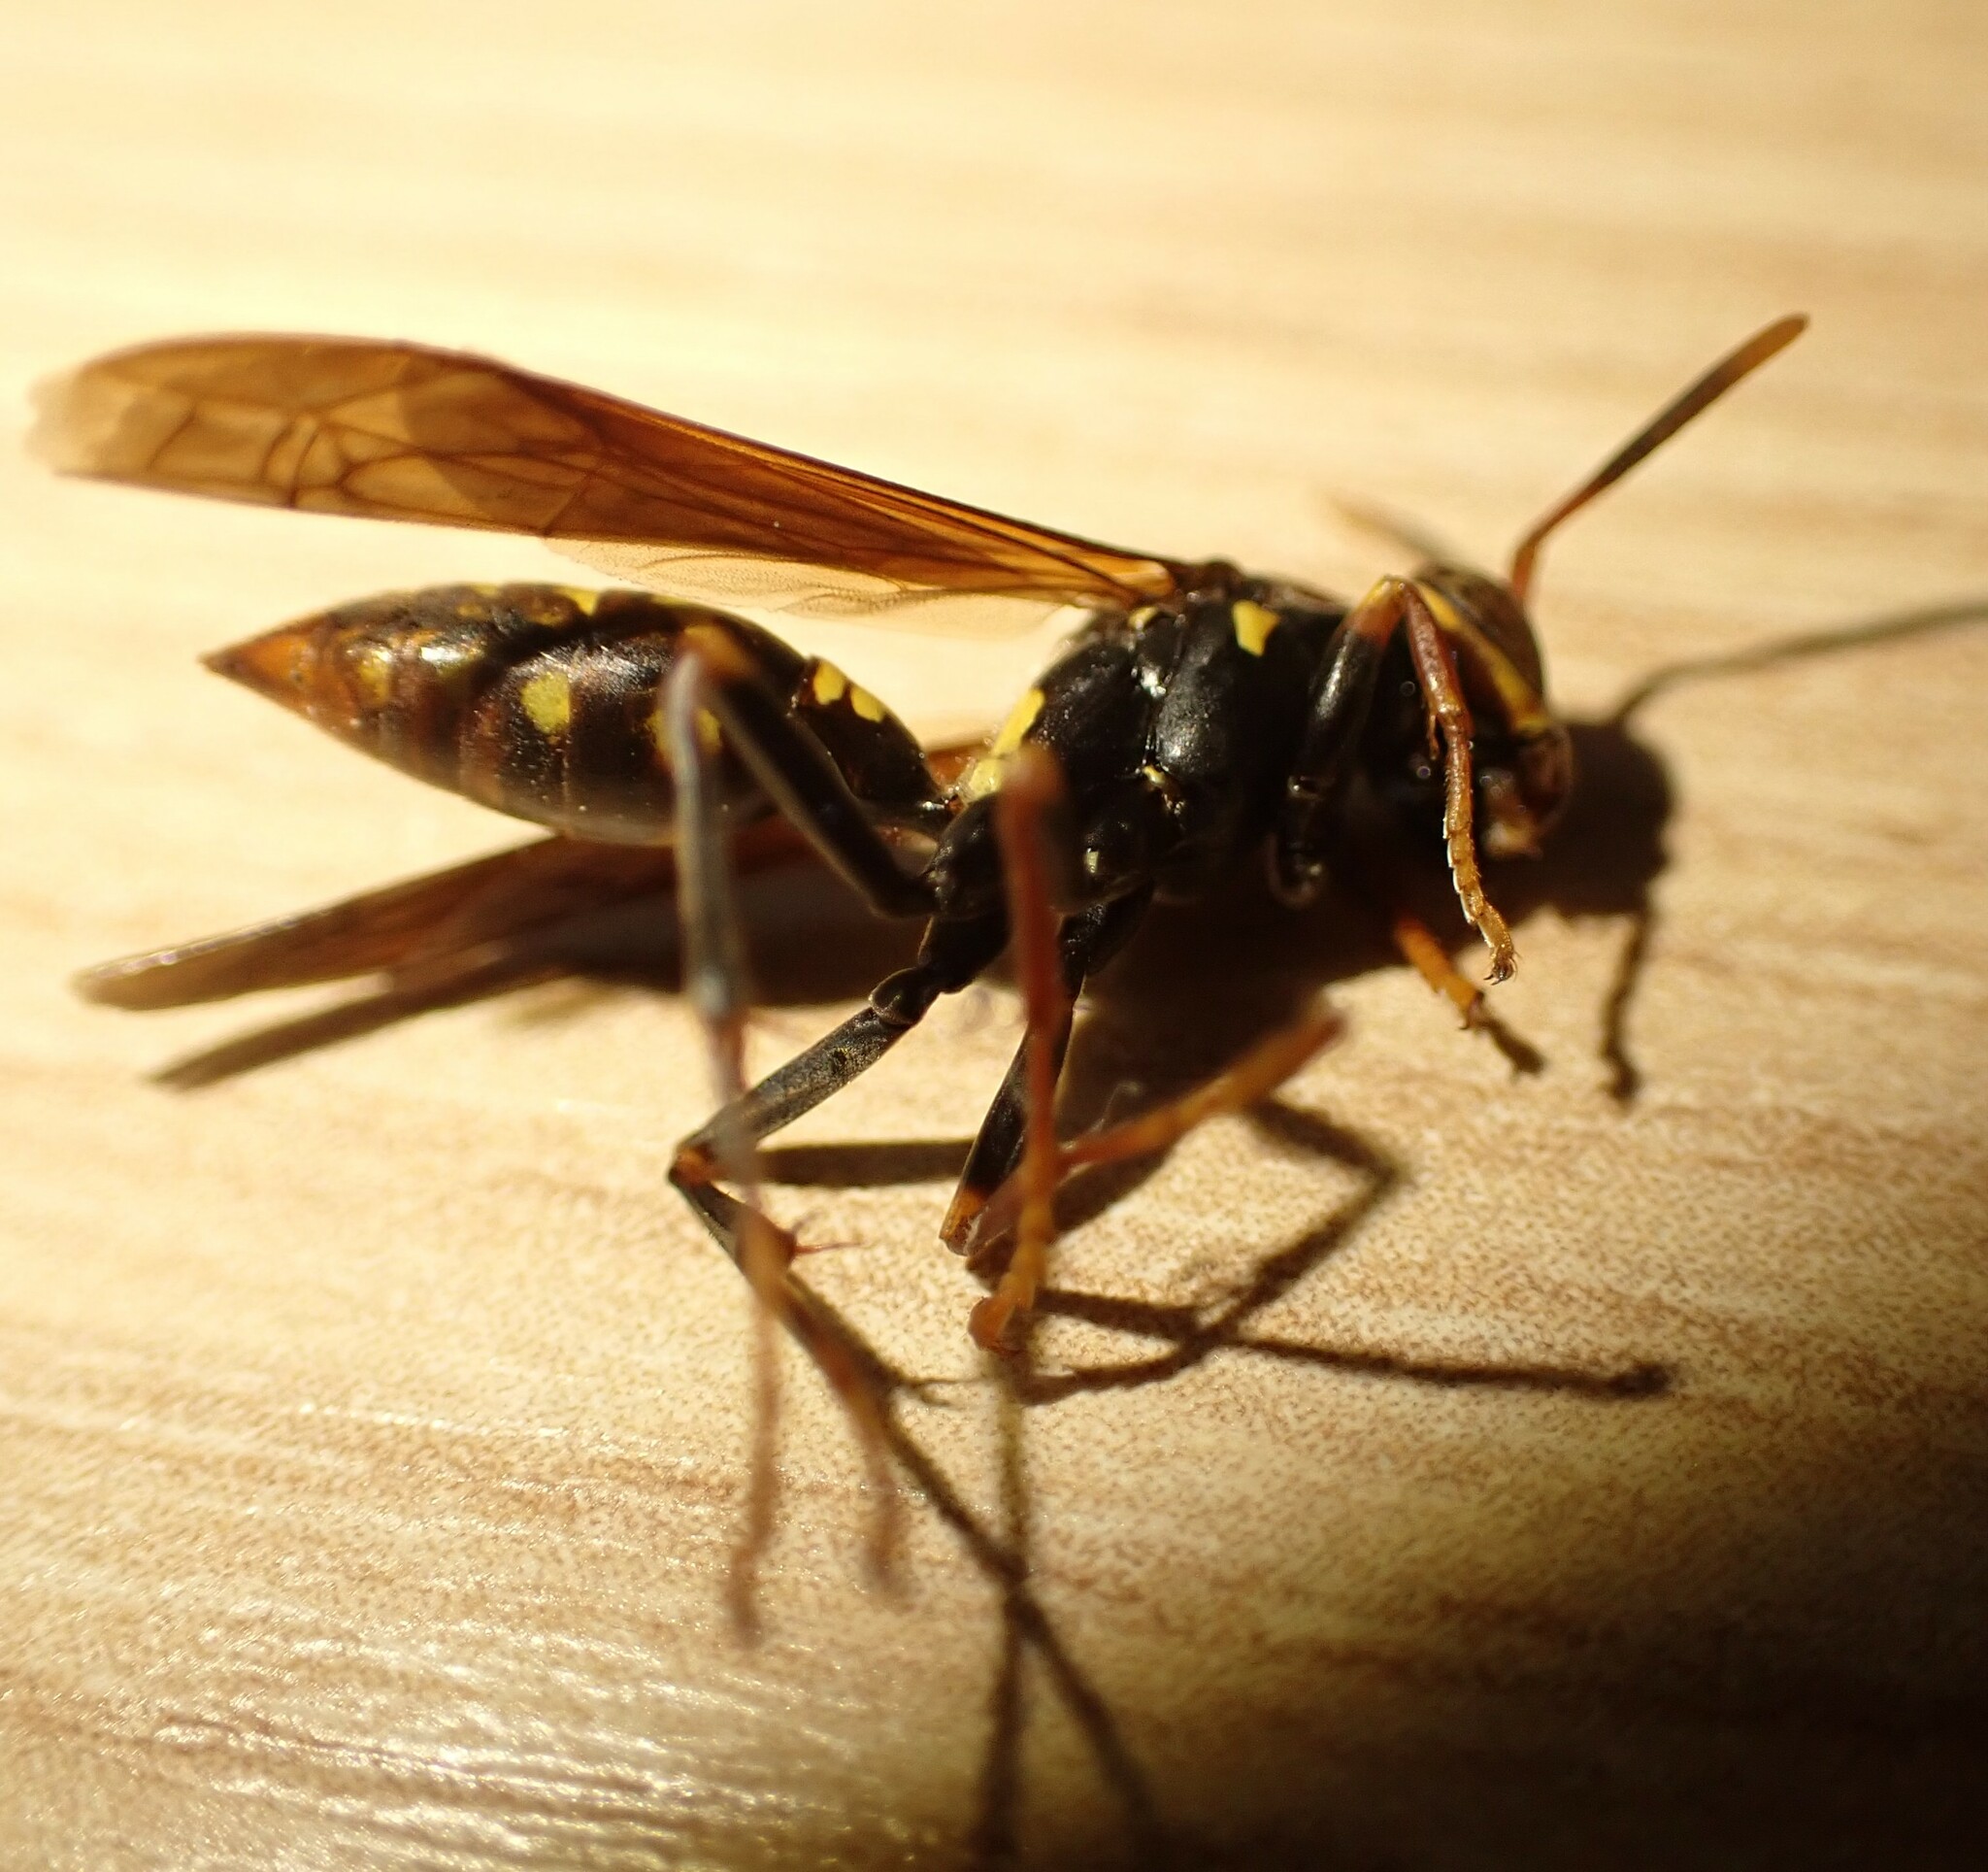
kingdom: Animalia
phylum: Arthropoda
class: Insecta
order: Hymenoptera
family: Eumenidae
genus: Polistes
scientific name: Polistes versicolor
